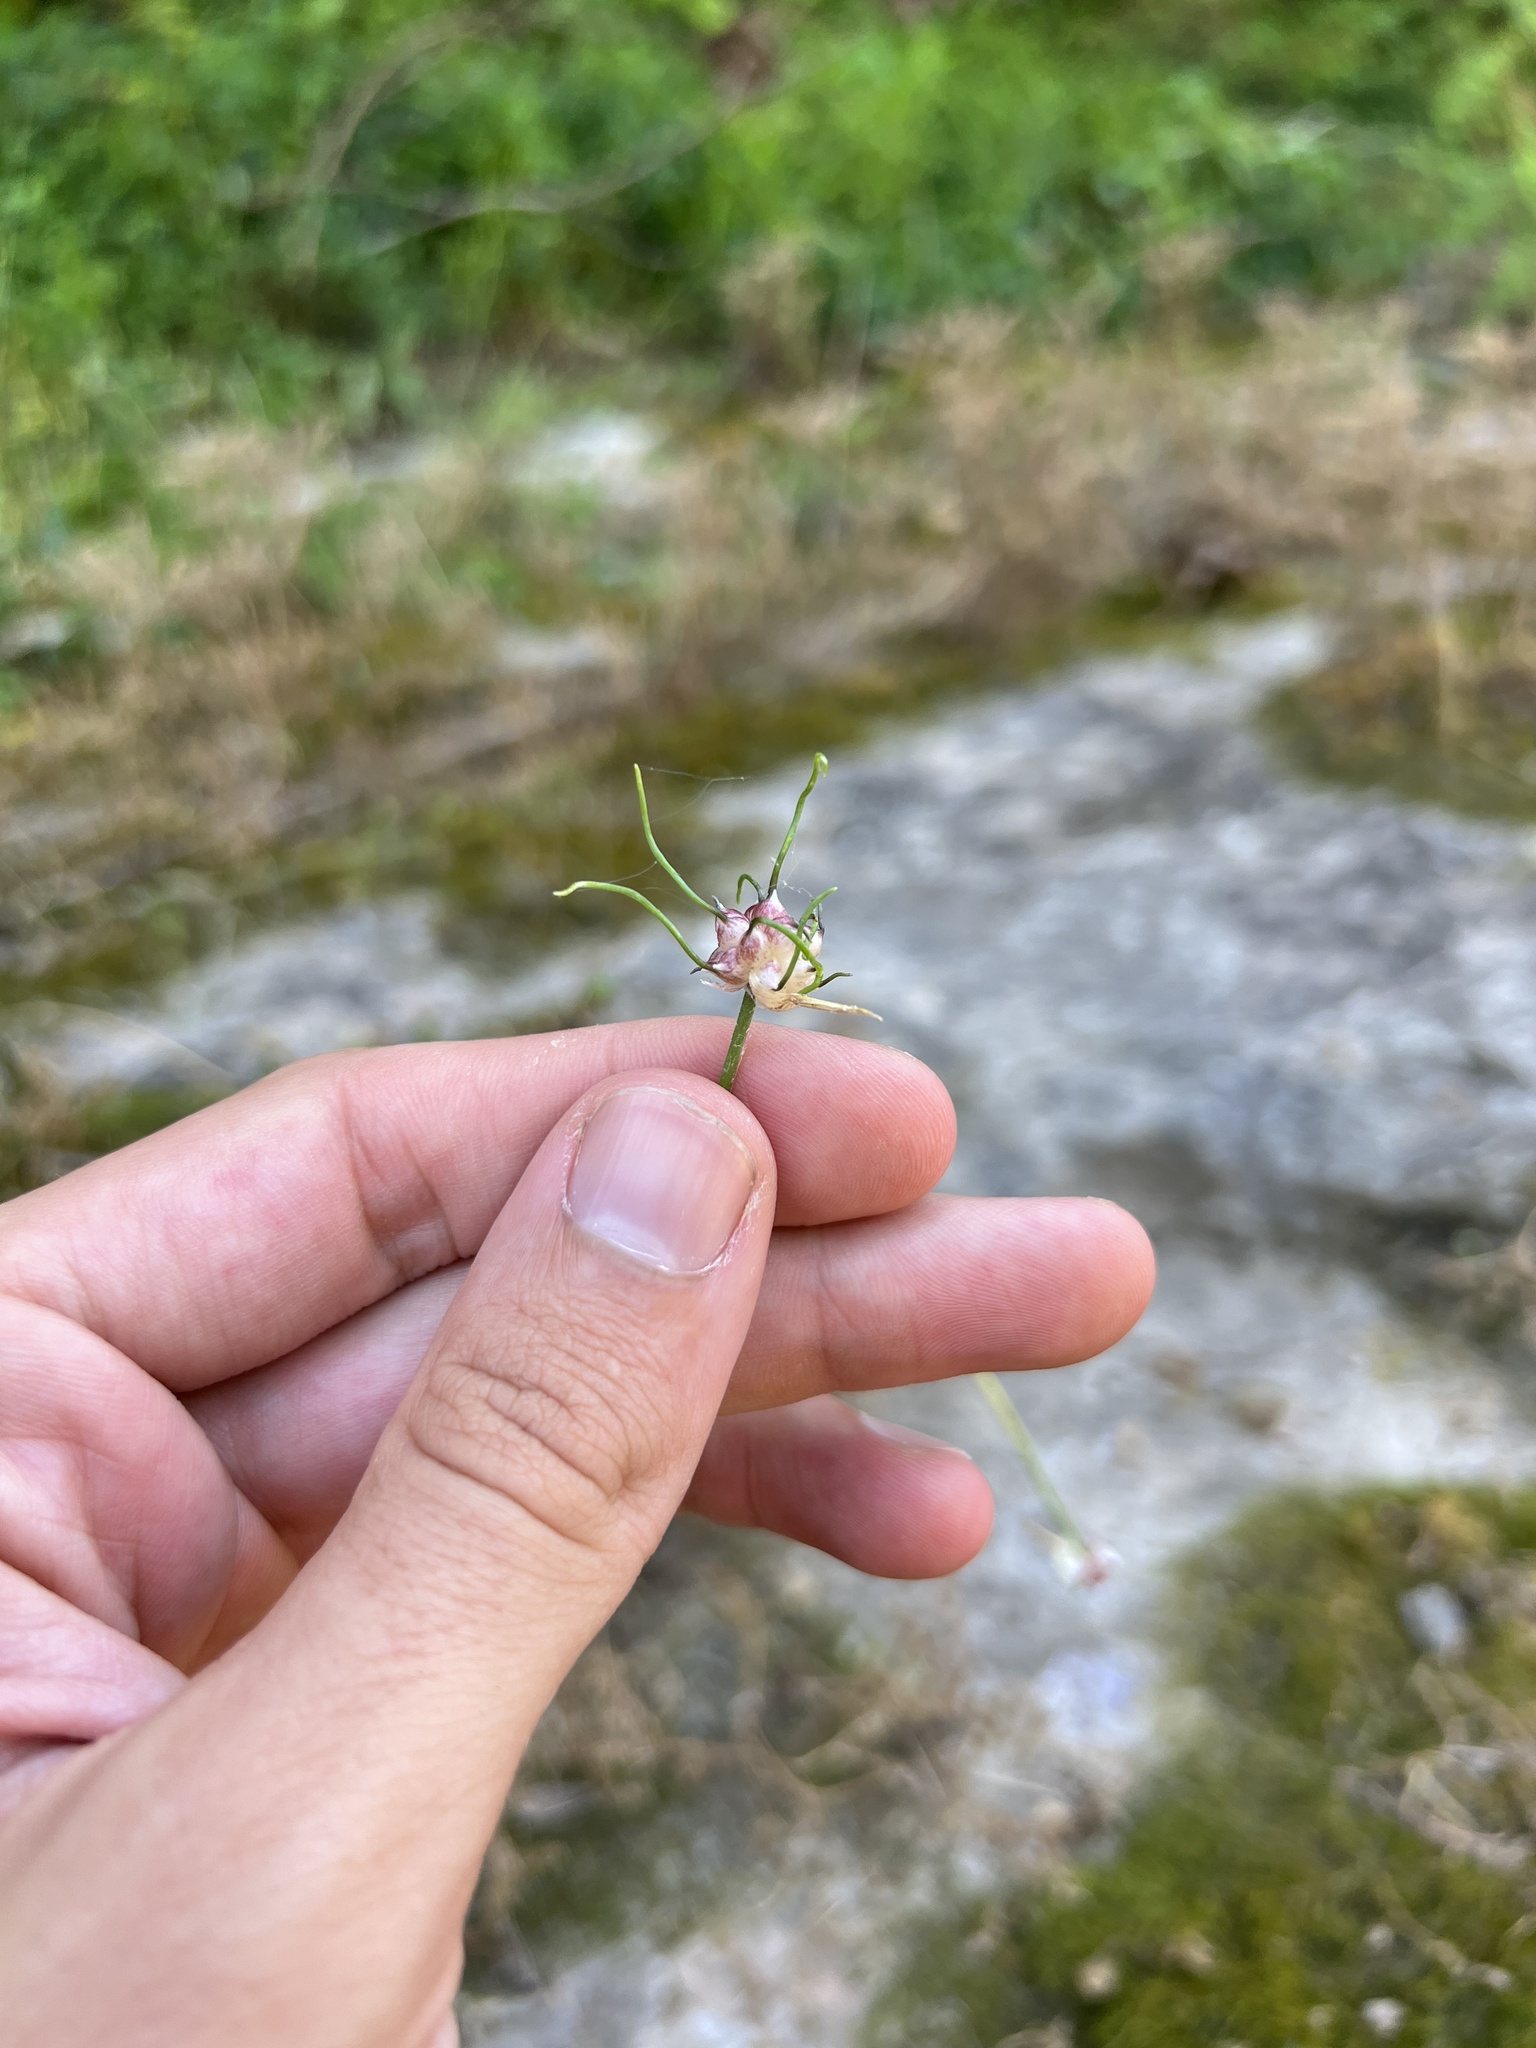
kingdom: Plantae
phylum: Tracheophyta
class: Liliopsida
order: Asparagales
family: Amaryllidaceae
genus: Allium
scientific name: Allium vineale
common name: Crow garlic
